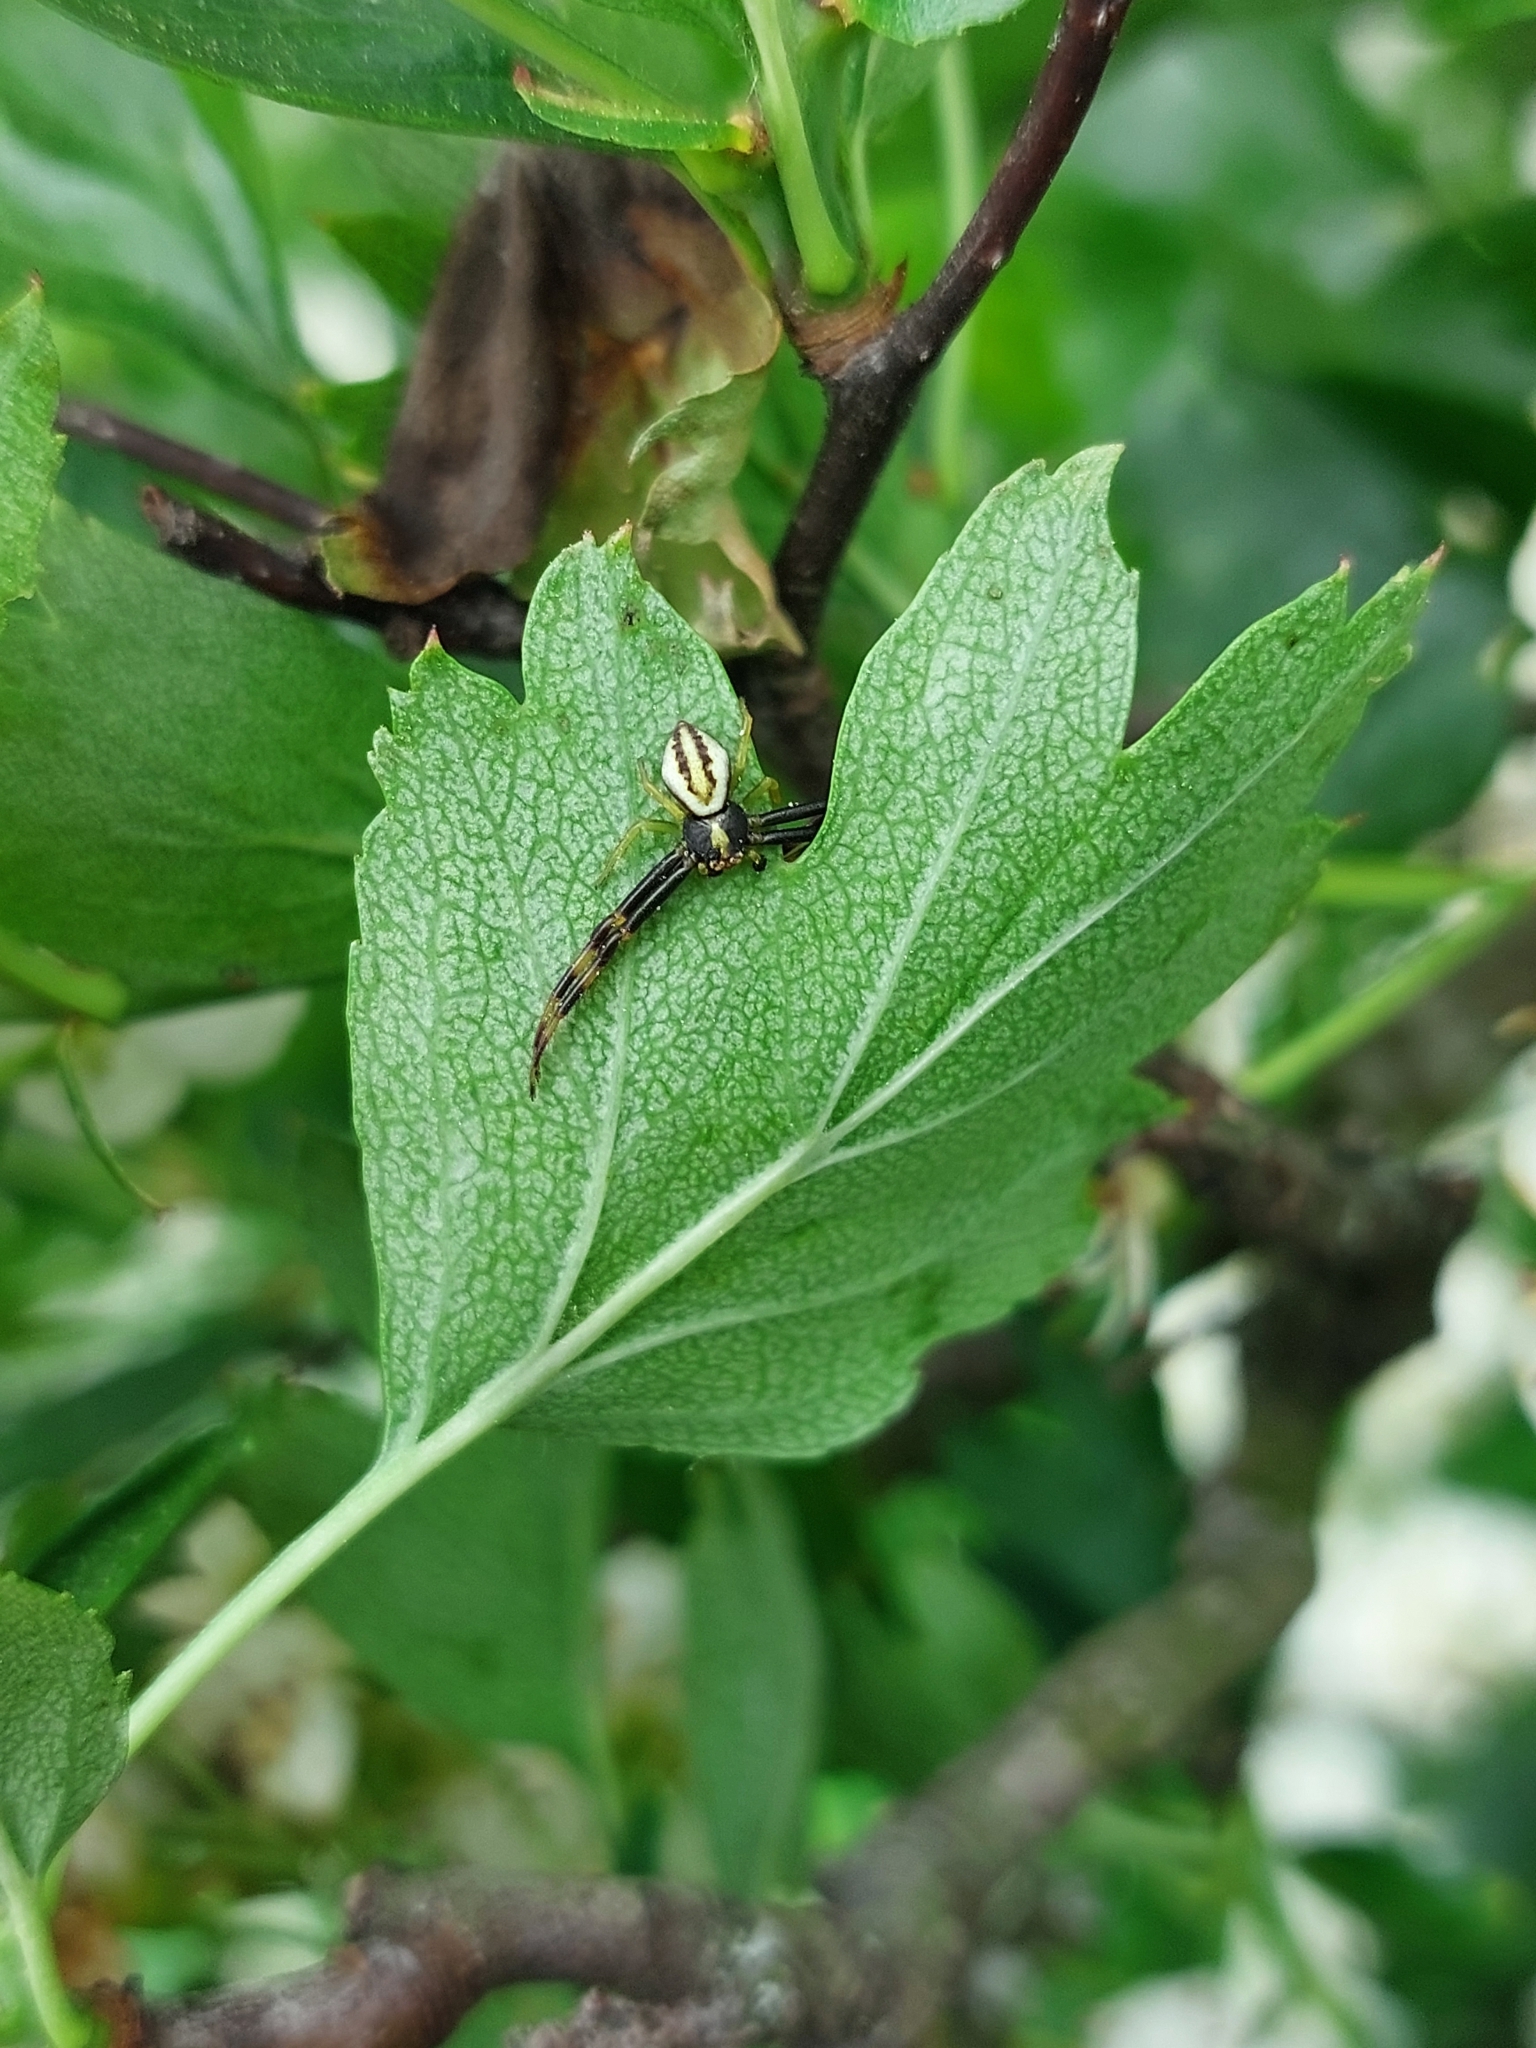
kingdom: Animalia
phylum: Arthropoda
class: Arachnida
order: Araneae
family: Thomisidae
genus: Misumena
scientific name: Misumena vatia
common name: Goldenrod crab spider
